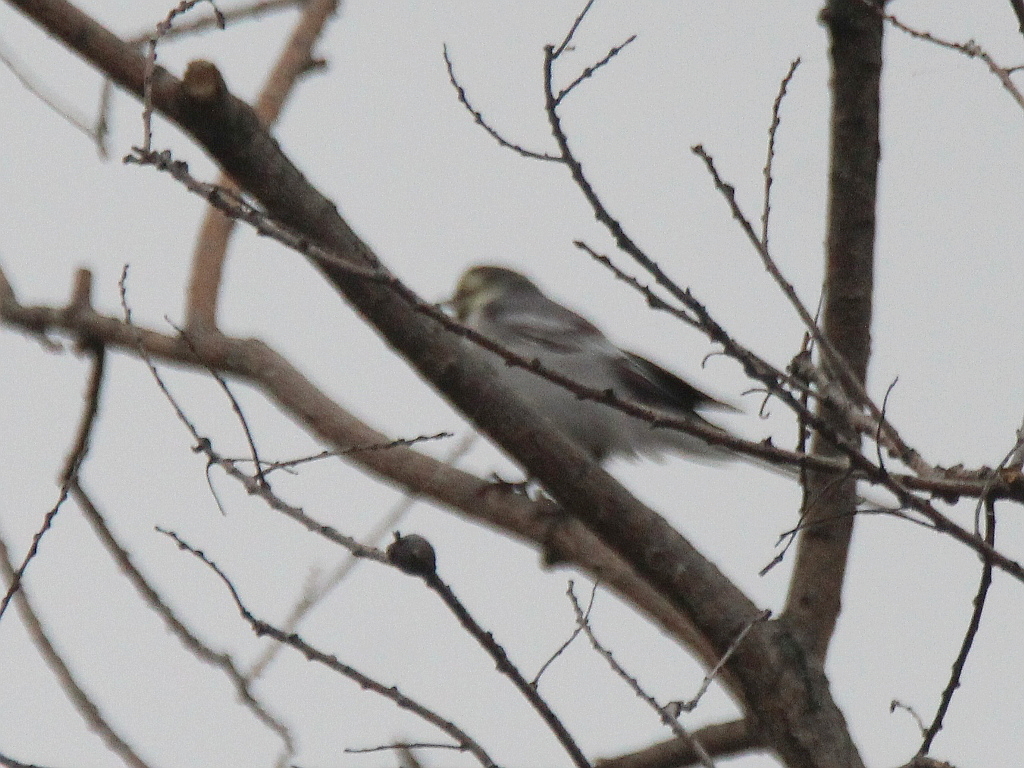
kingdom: Animalia
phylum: Chordata
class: Aves
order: Passeriformes
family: Motacillidae
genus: Motacilla
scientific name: Motacilla alba
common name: White wagtail
